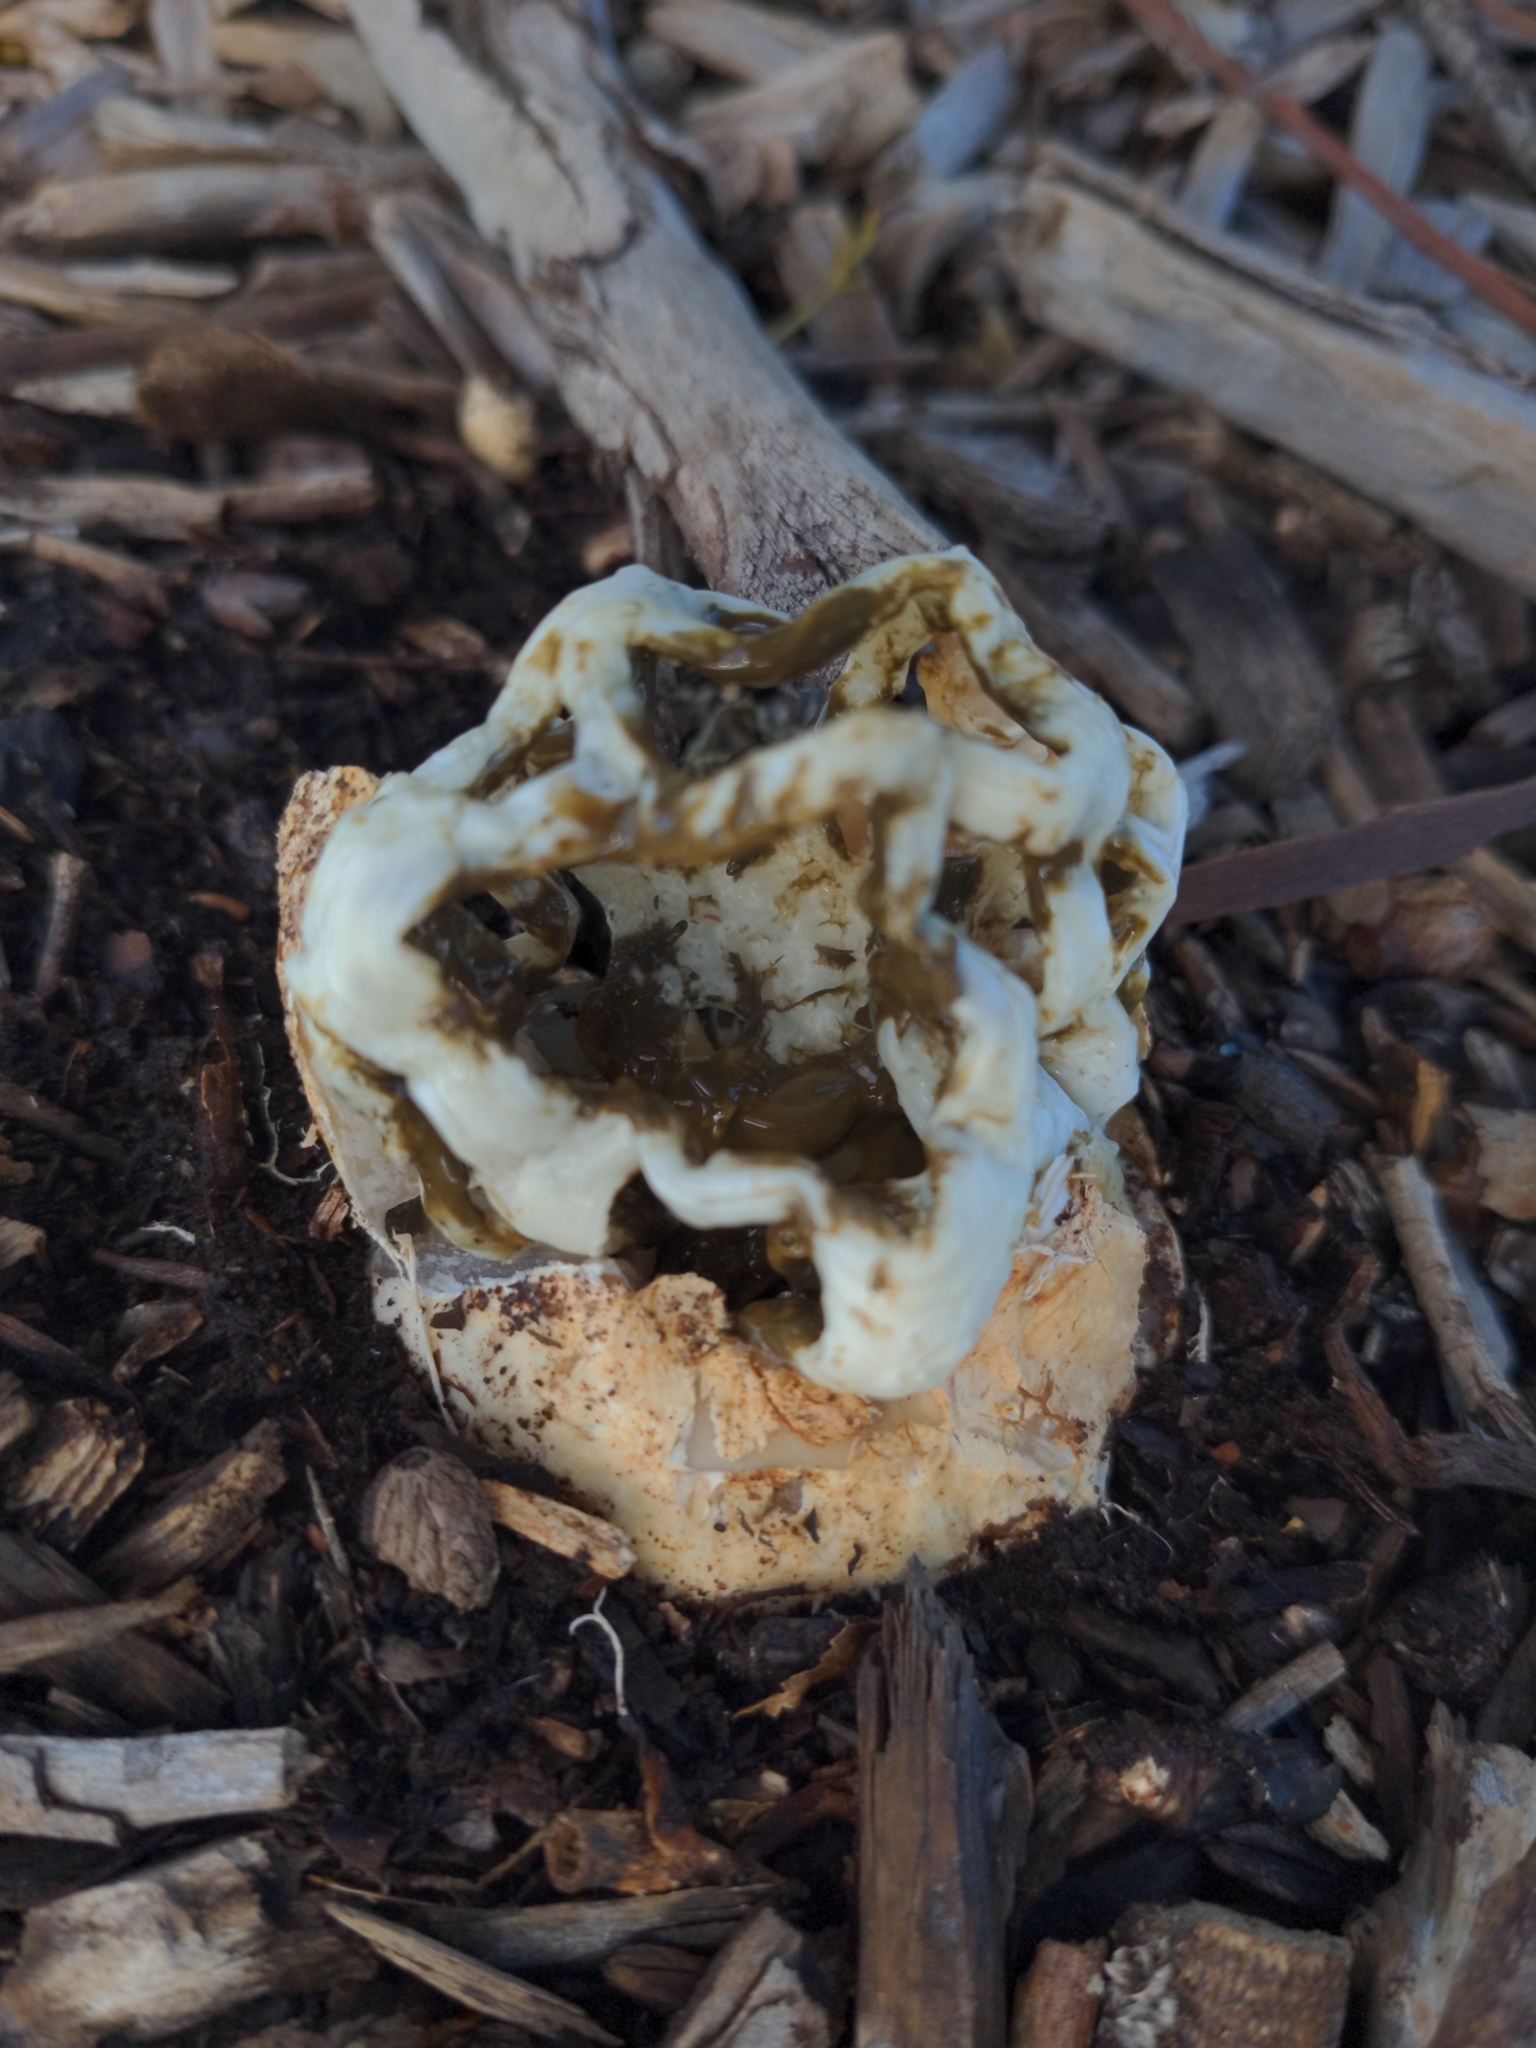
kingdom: Fungi
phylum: Basidiomycota
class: Agaricomycetes
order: Phallales
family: Phallaceae
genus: Ileodictyon
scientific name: Ileodictyon gracile
